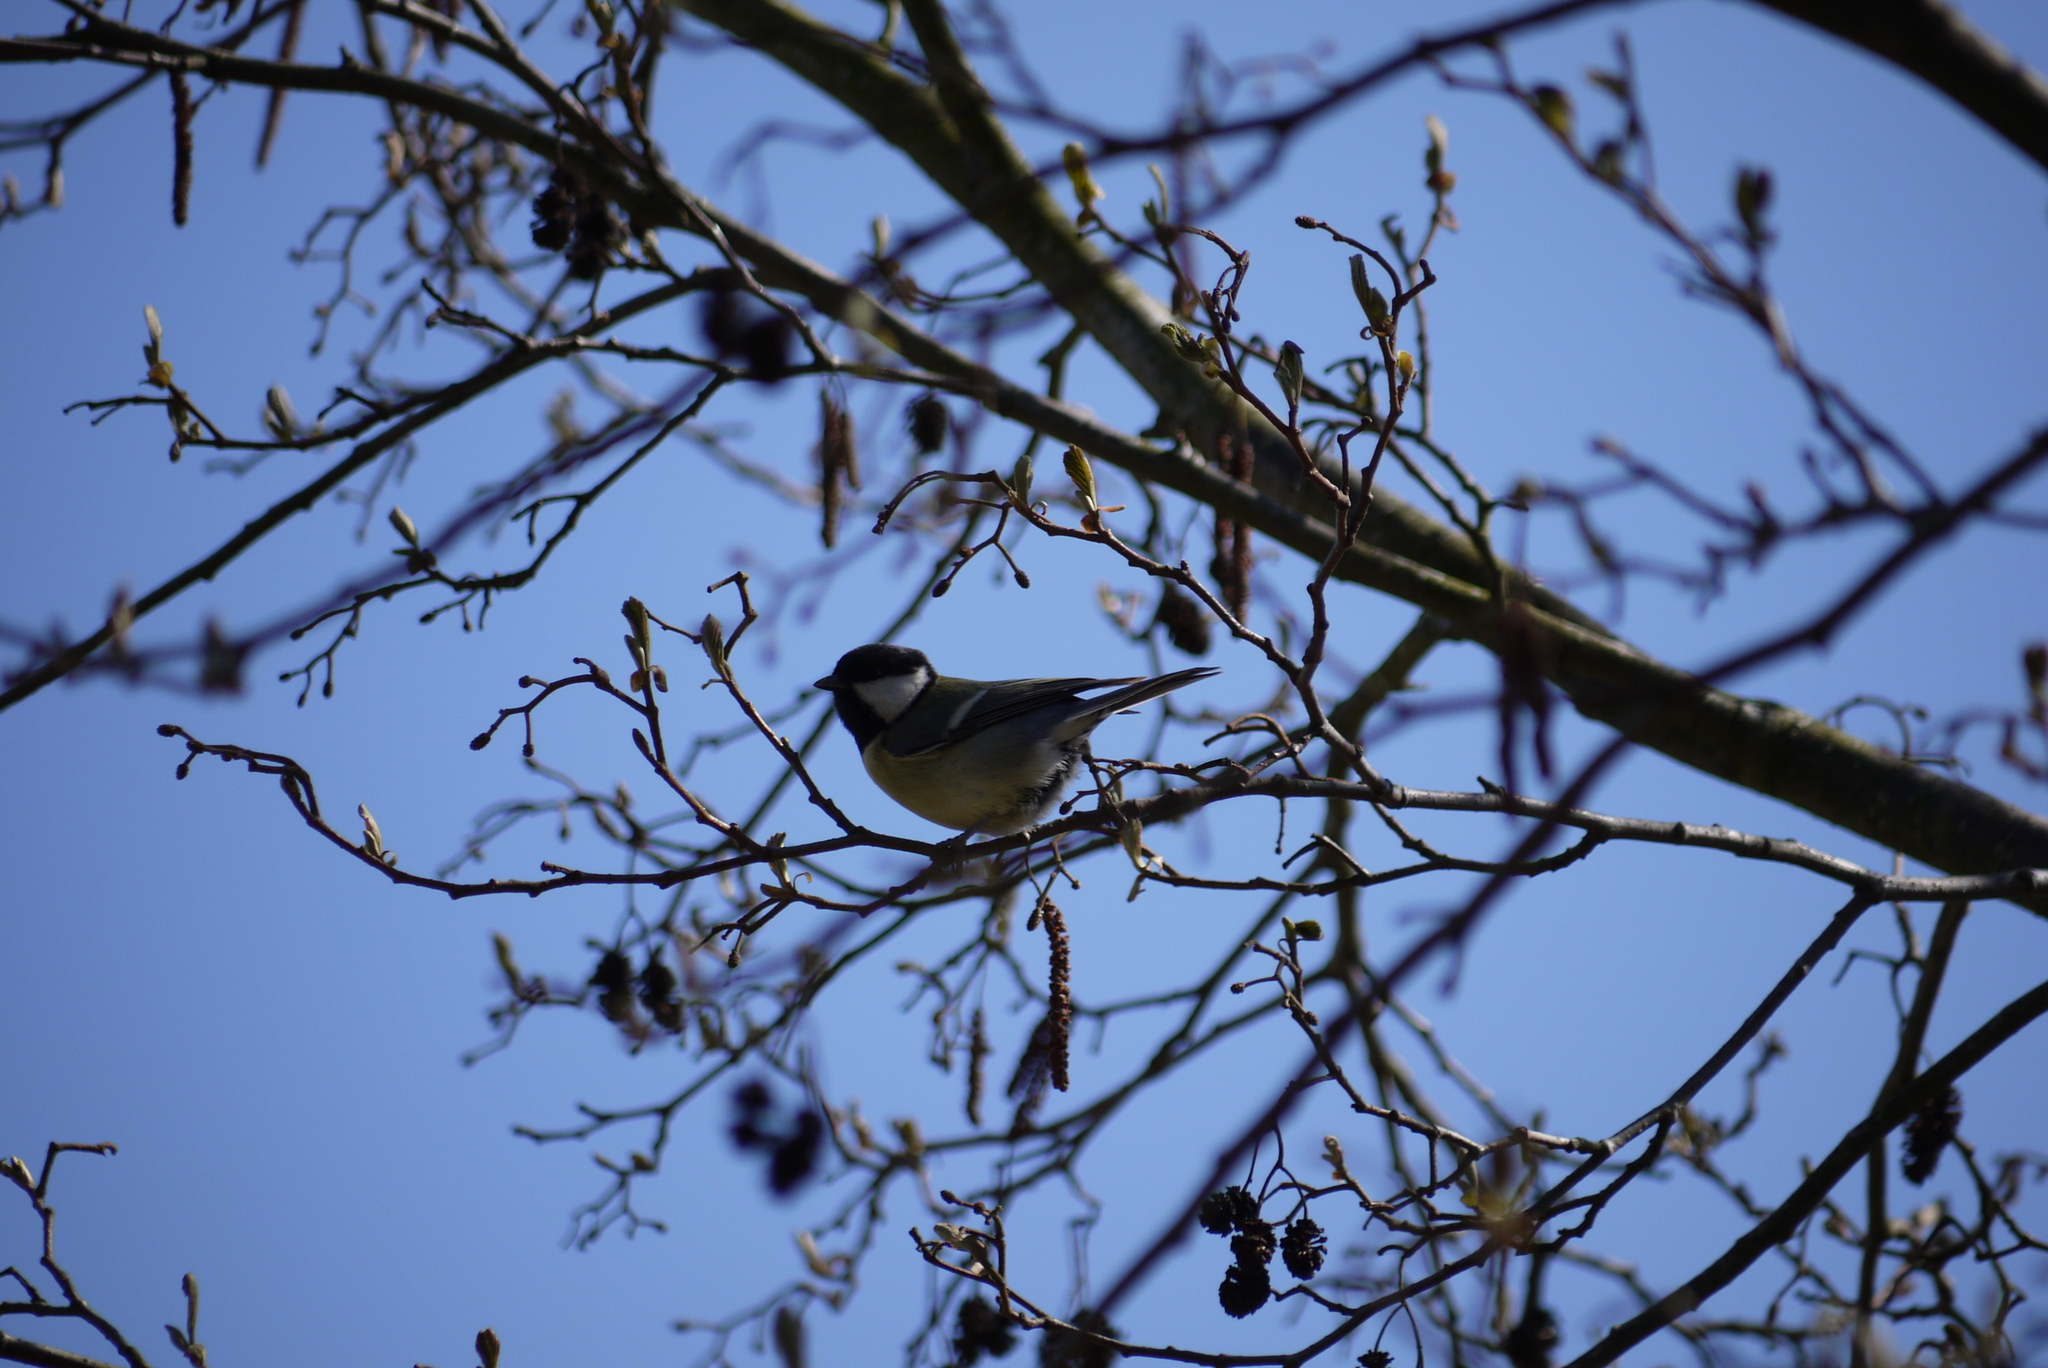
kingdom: Animalia
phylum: Chordata
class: Aves
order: Passeriformes
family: Paridae
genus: Parus
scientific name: Parus major
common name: Great tit
